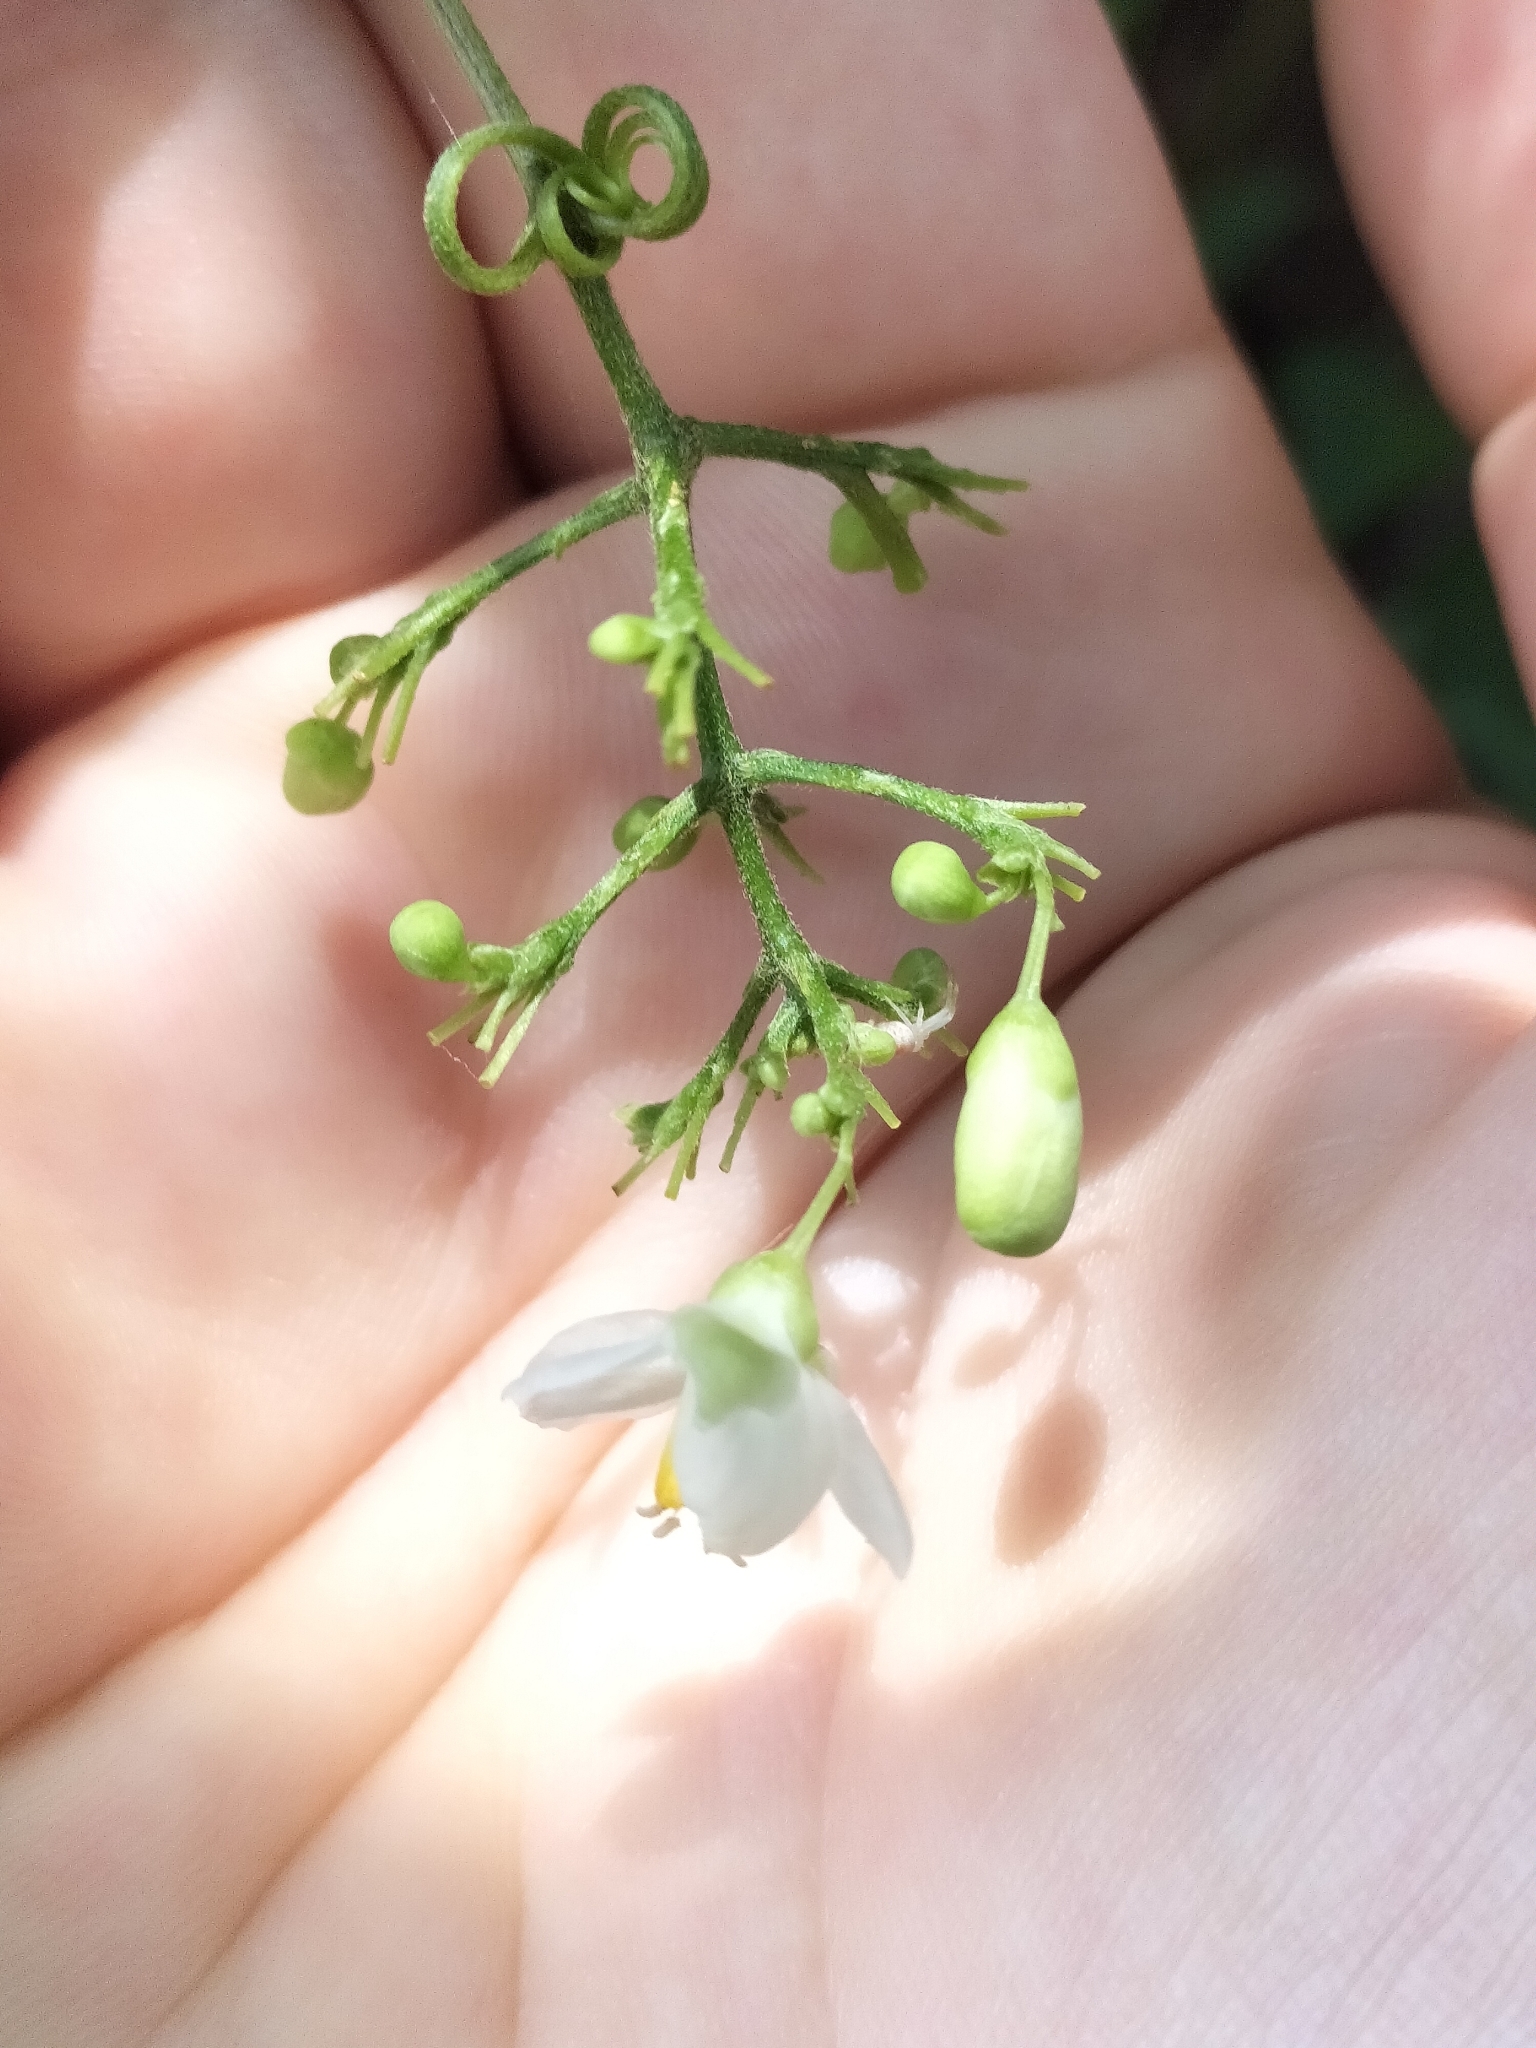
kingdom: Plantae
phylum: Tracheophyta
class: Magnoliopsida
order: Sapindales
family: Sapindaceae
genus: Cardiospermum
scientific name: Cardiospermum grandiflorum
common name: Balloon vine
